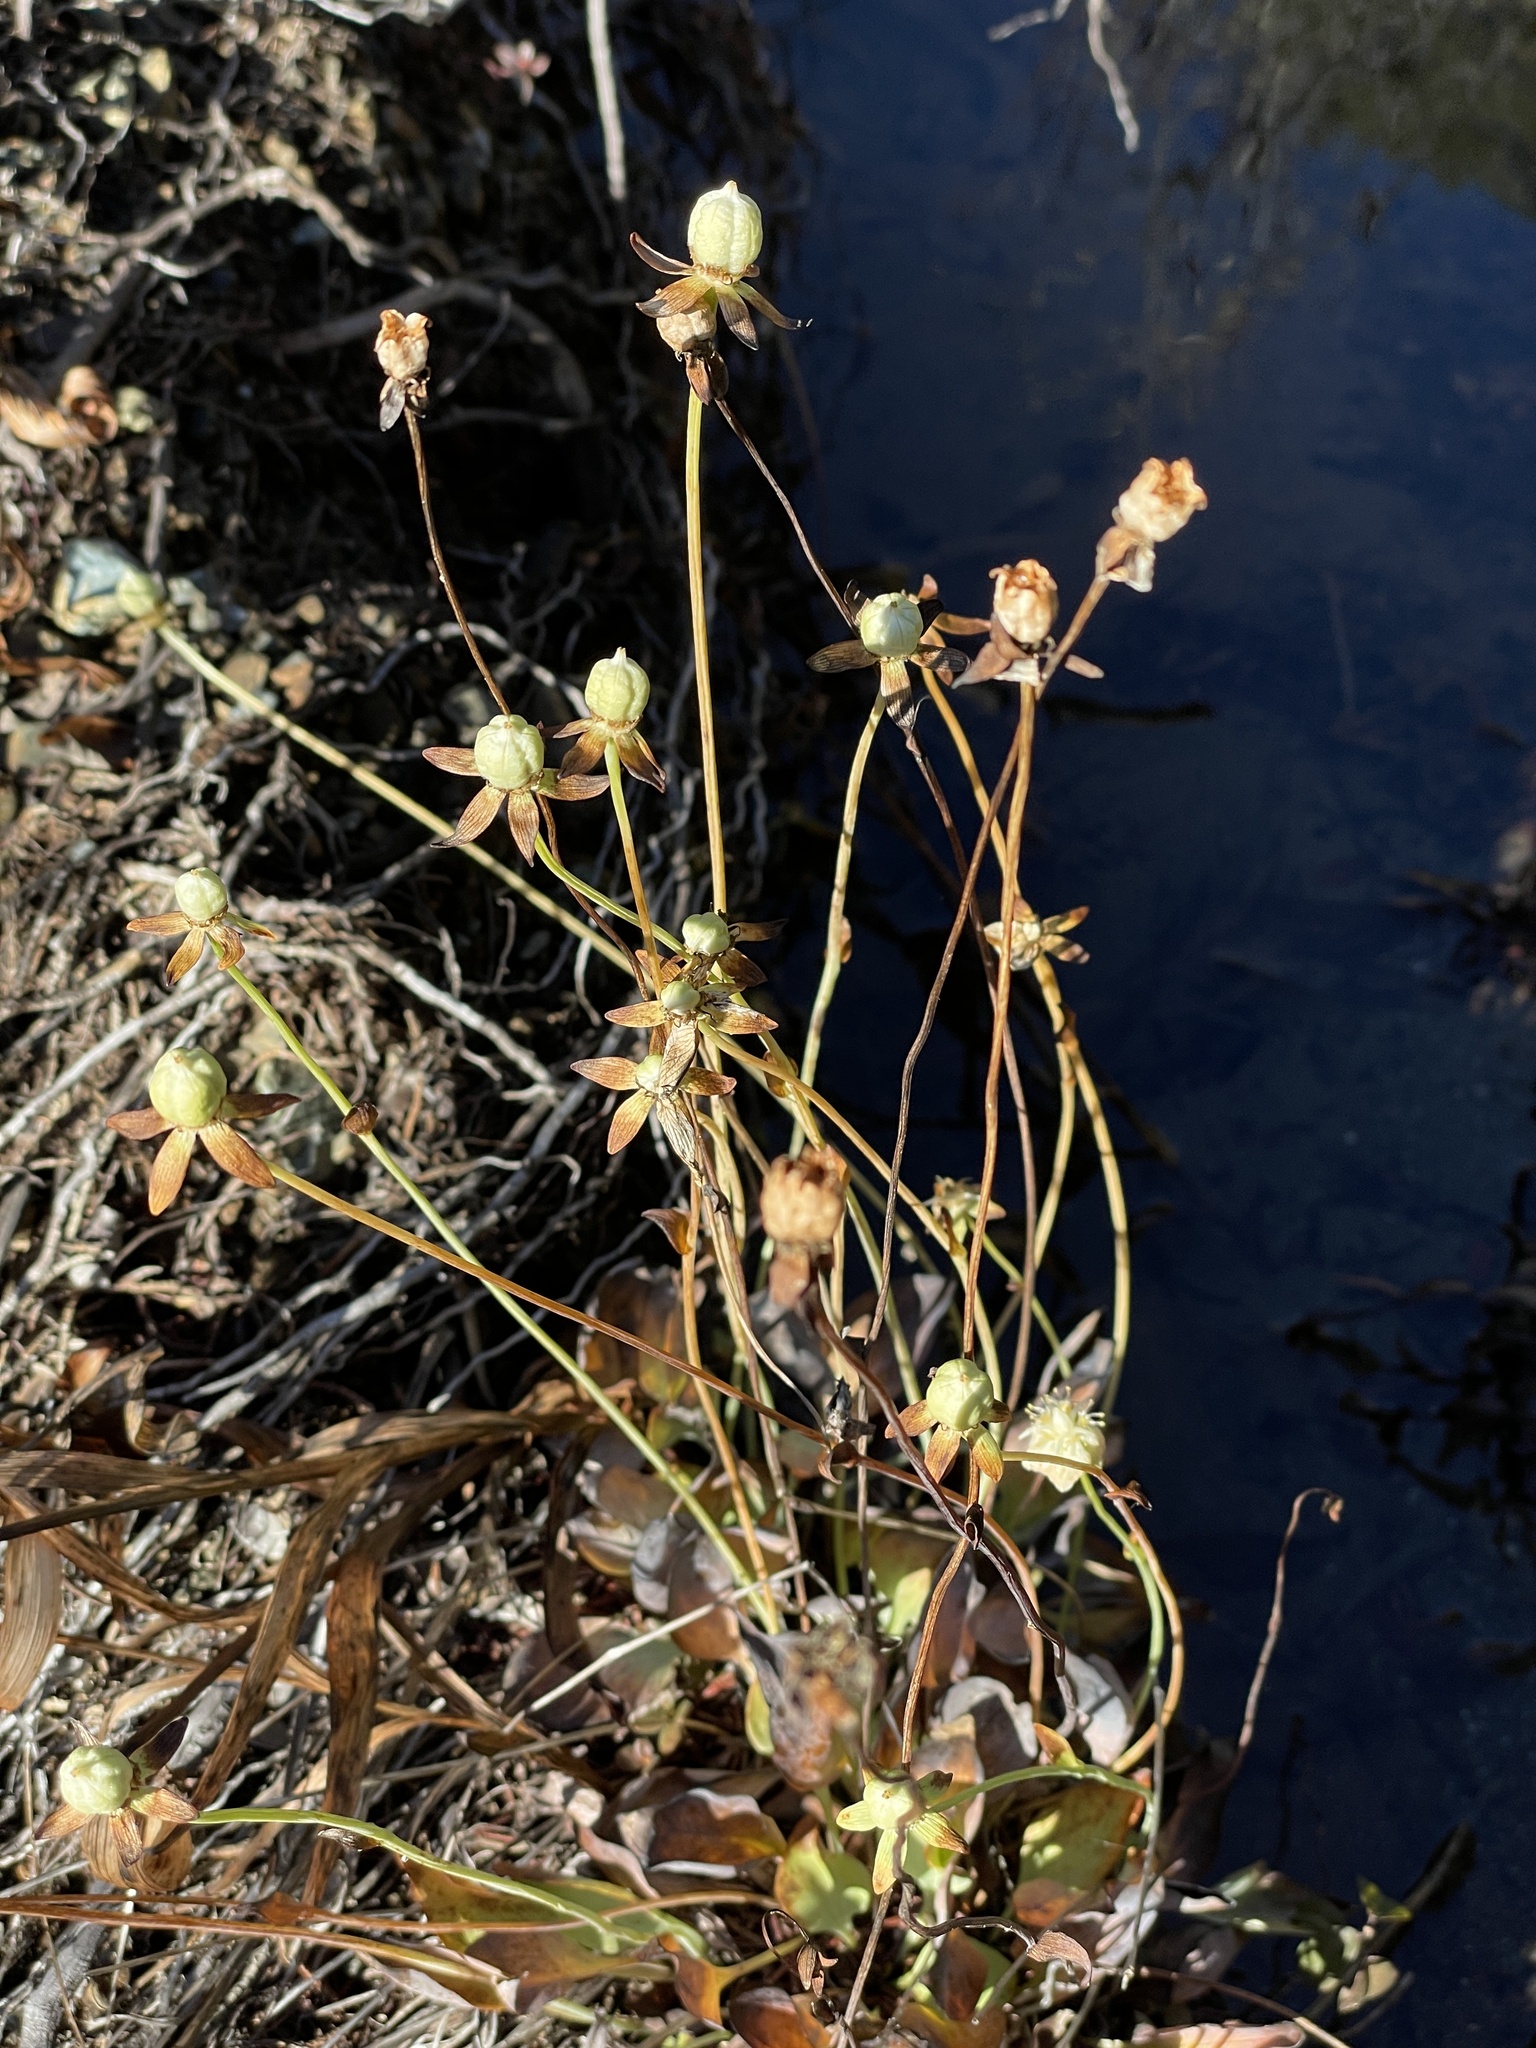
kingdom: Plantae
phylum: Tracheophyta
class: Magnoliopsida
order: Celastrales
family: Parnassiaceae
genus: Parnassia
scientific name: Parnassia palustris
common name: Grass-of-parnassus
